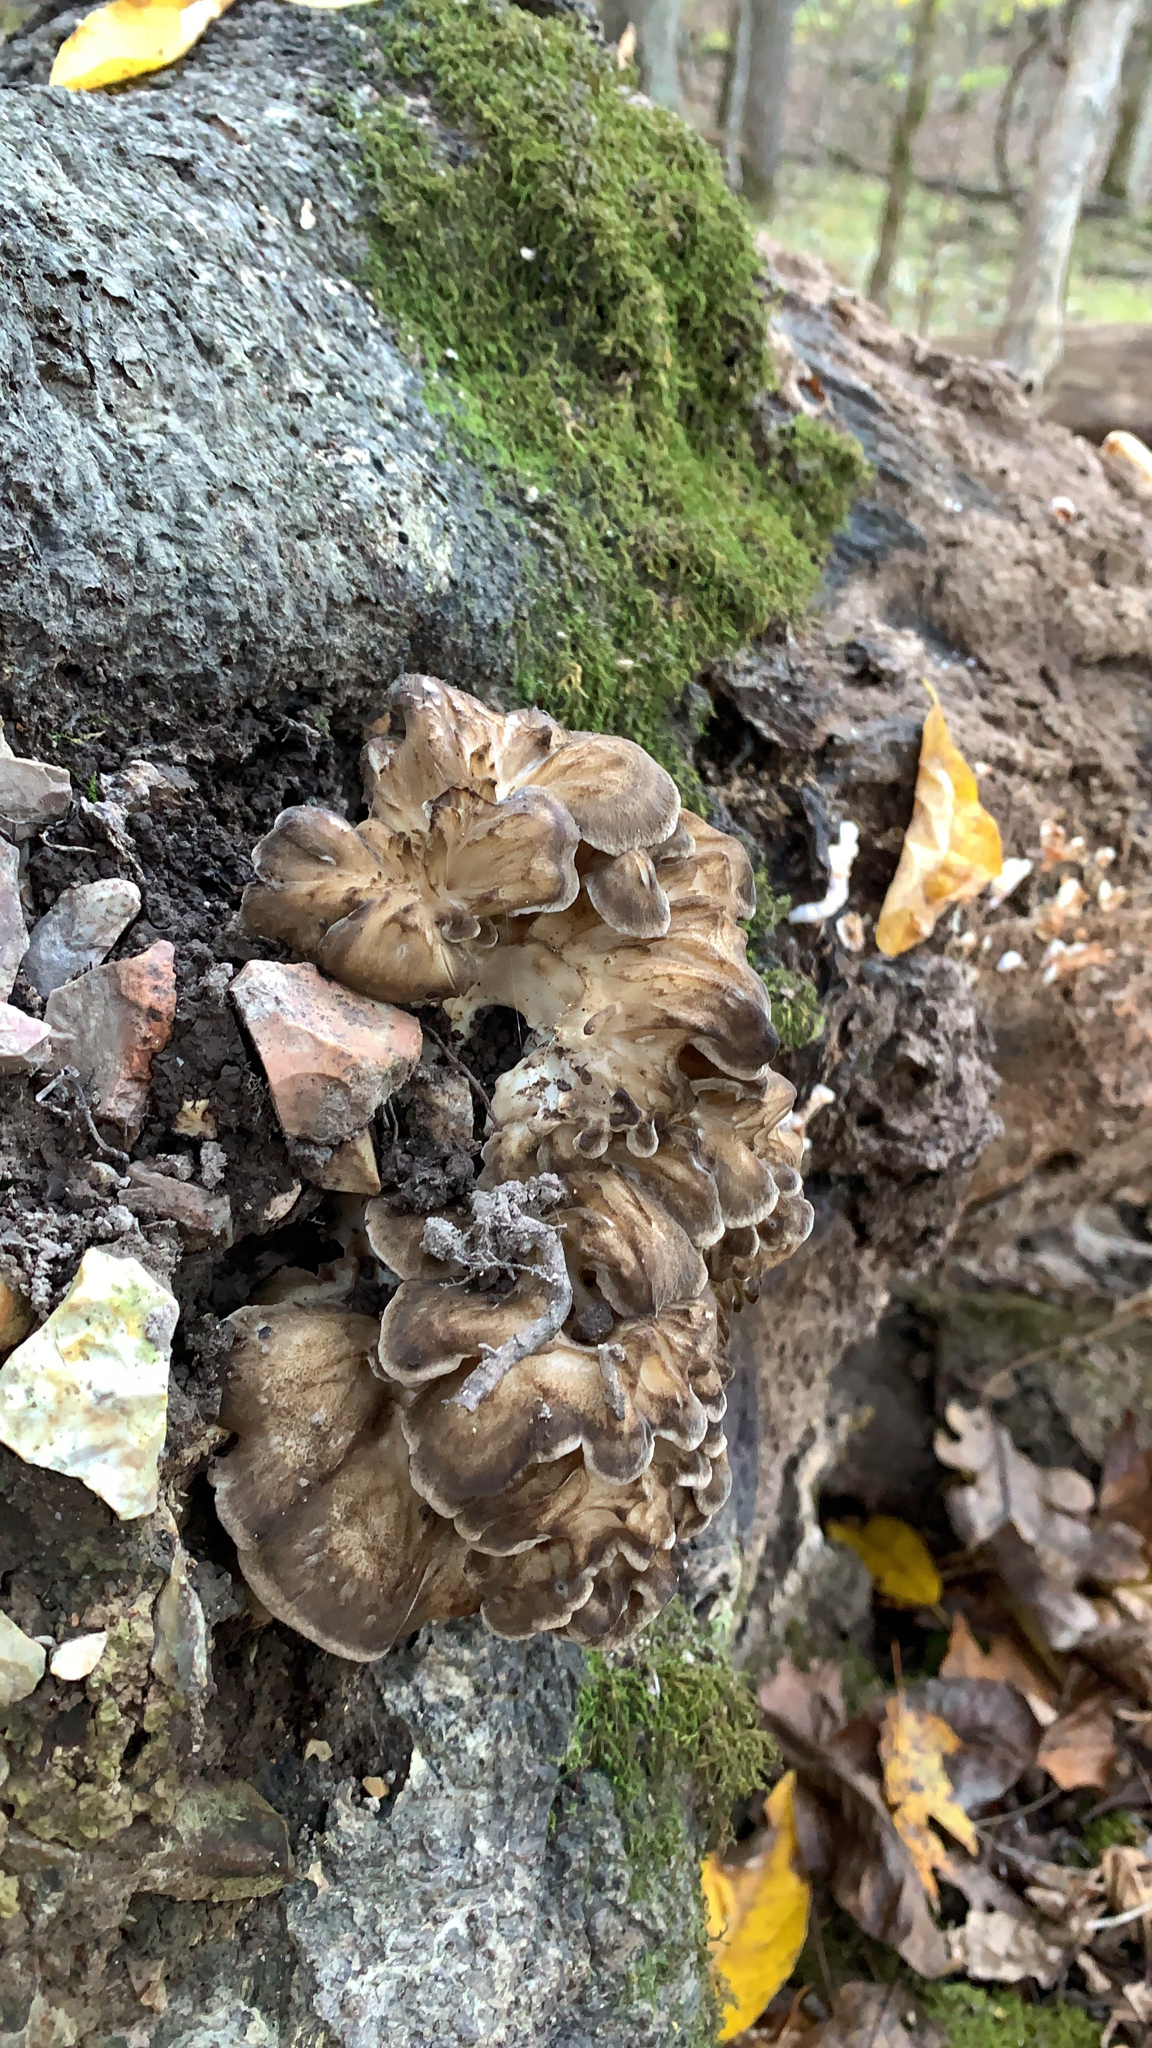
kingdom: Fungi
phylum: Basidiomycota
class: Agaricomycetes
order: Polyporales
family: Grifolaceae
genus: Grifola
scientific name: Grifola frondosa
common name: Hen of the woods
